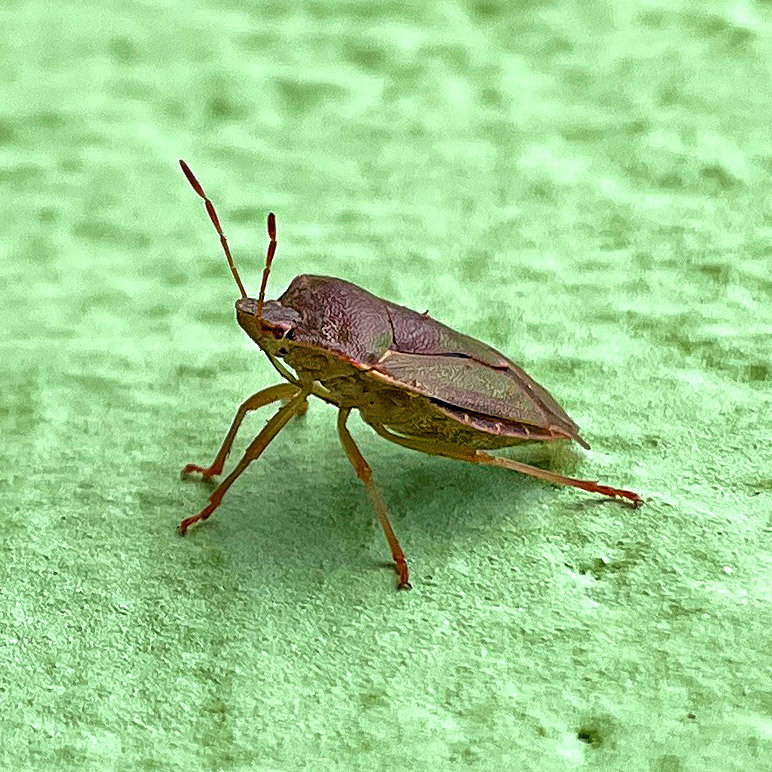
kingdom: Animalia
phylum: Arthropoda
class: Insecta
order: Hemiptera
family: Pentatomidae
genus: Palomena
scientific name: Palomena prasina
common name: Green shieldbug
